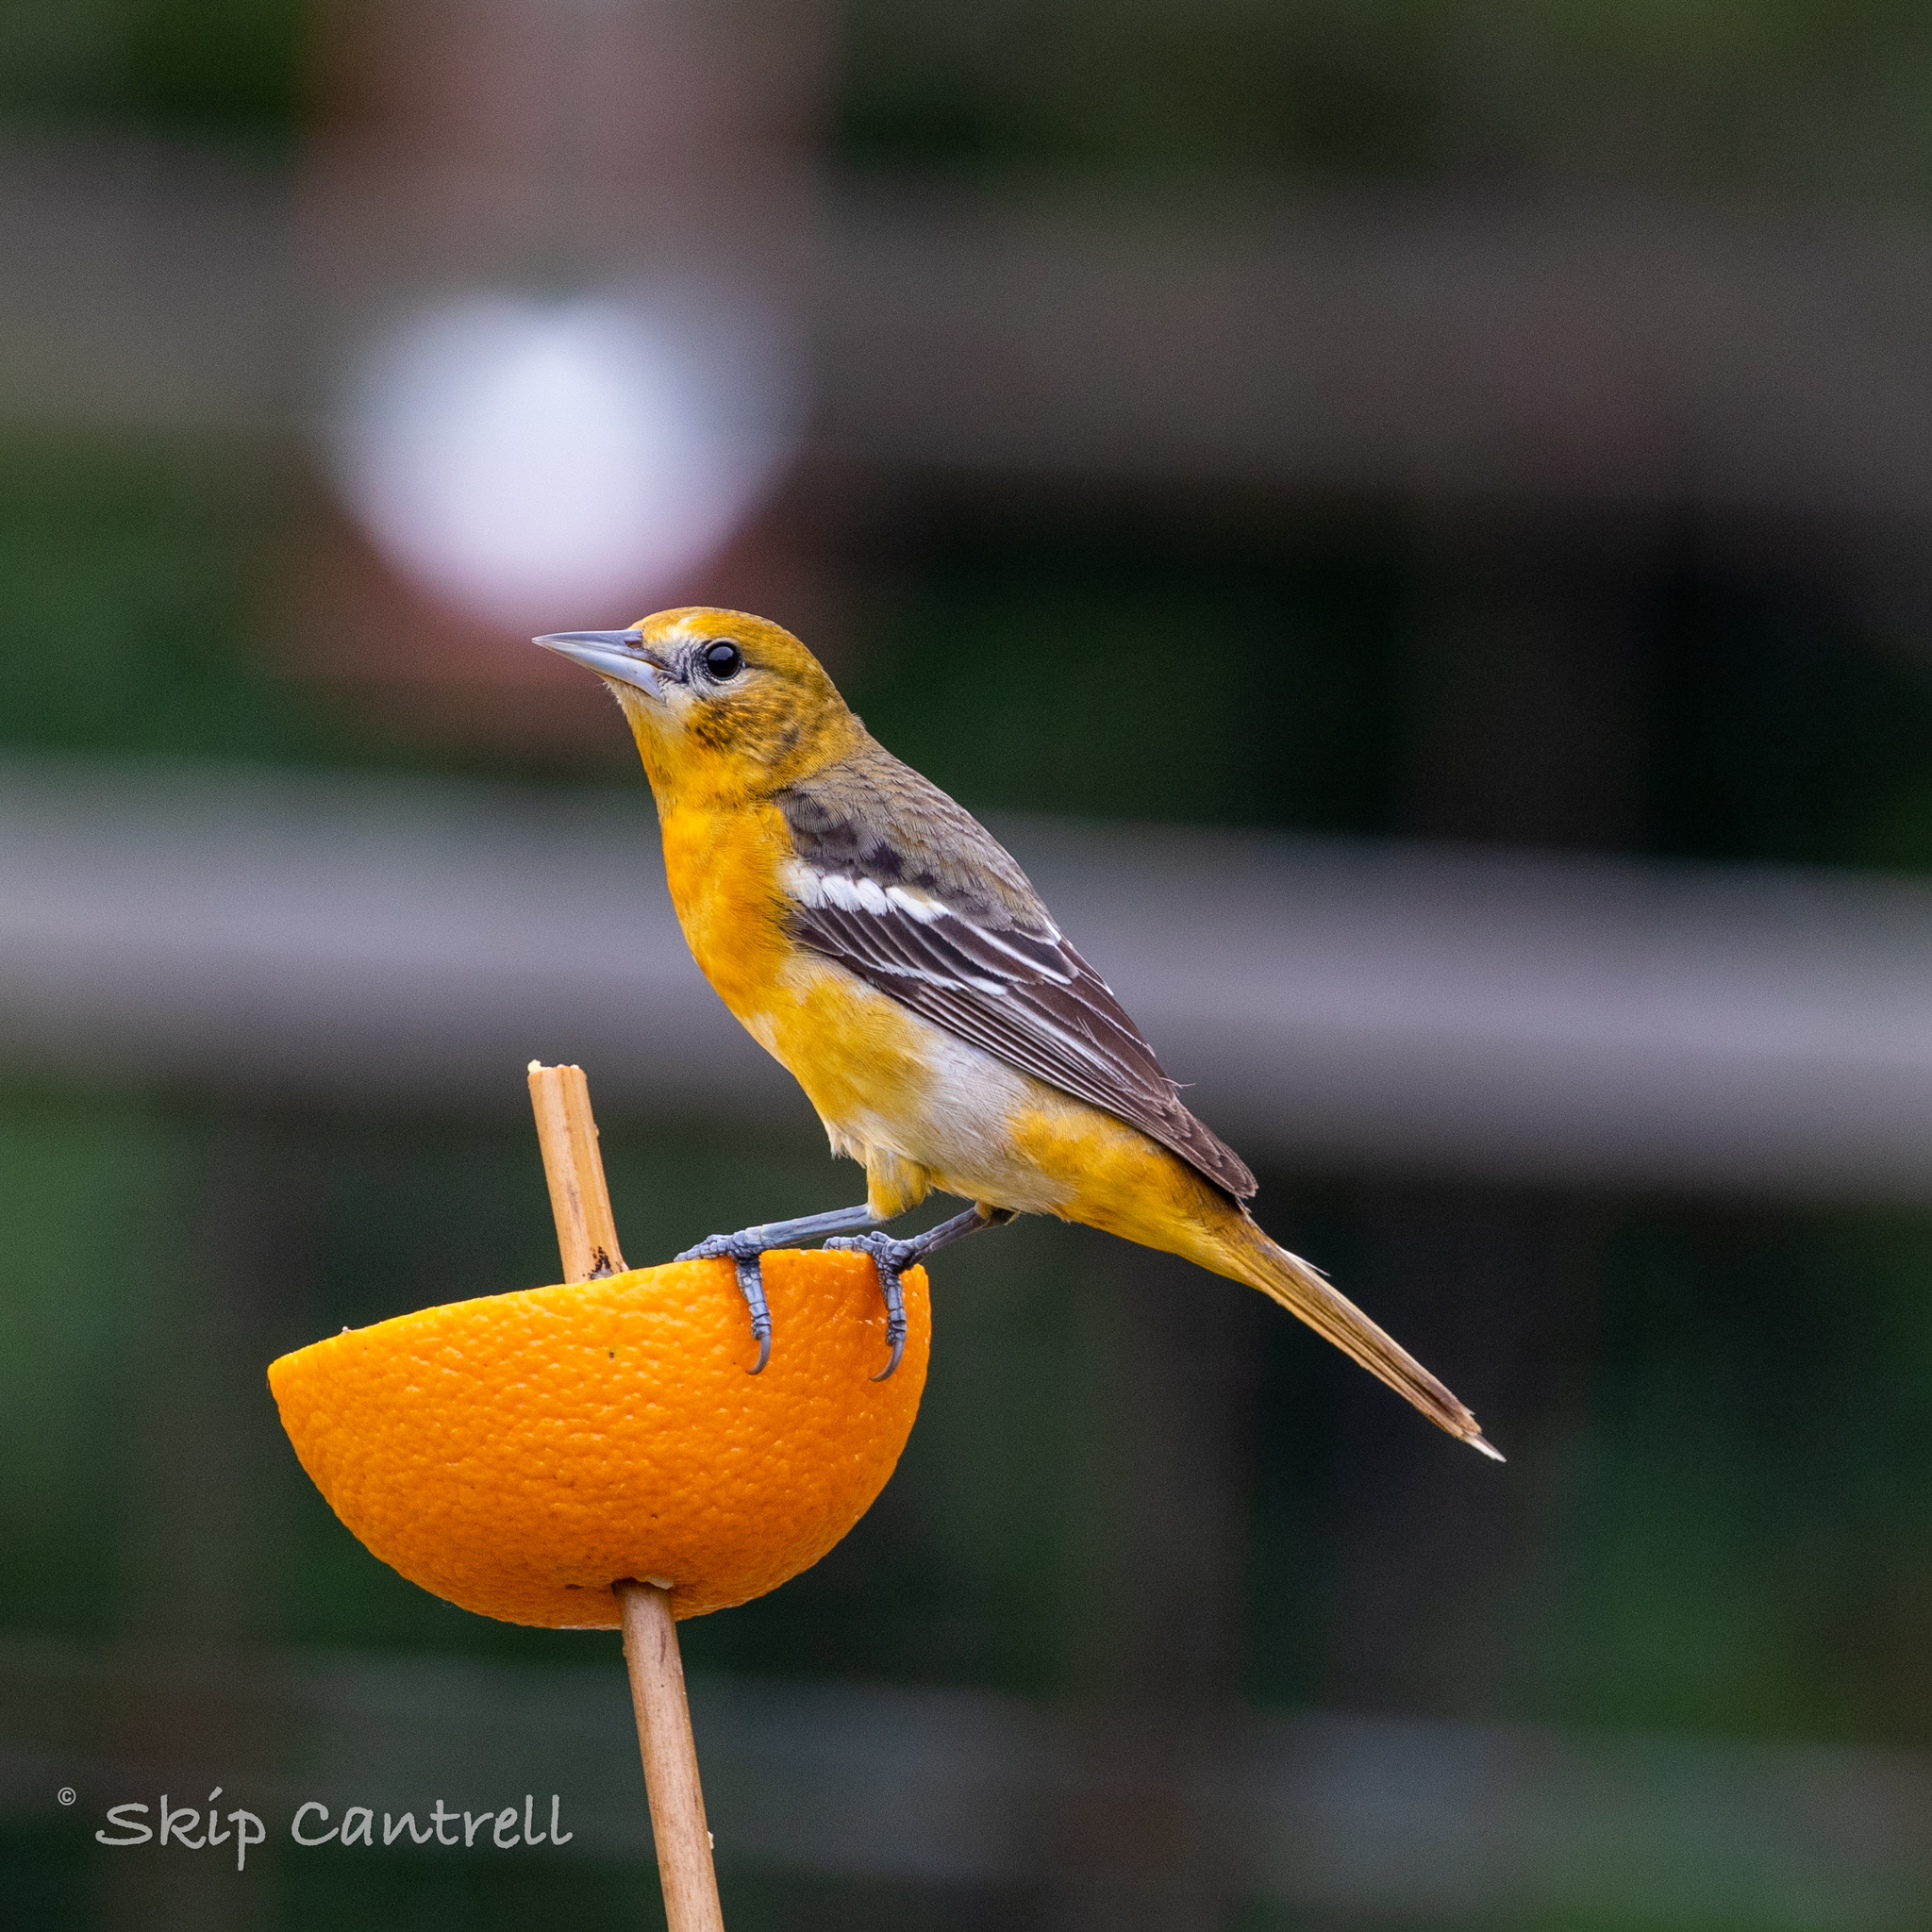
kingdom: Animalia
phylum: Chordata
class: Aves
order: Passeriformes
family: Icteridae
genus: Icterus
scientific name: Icterus galbula
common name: Baltimore oriole
